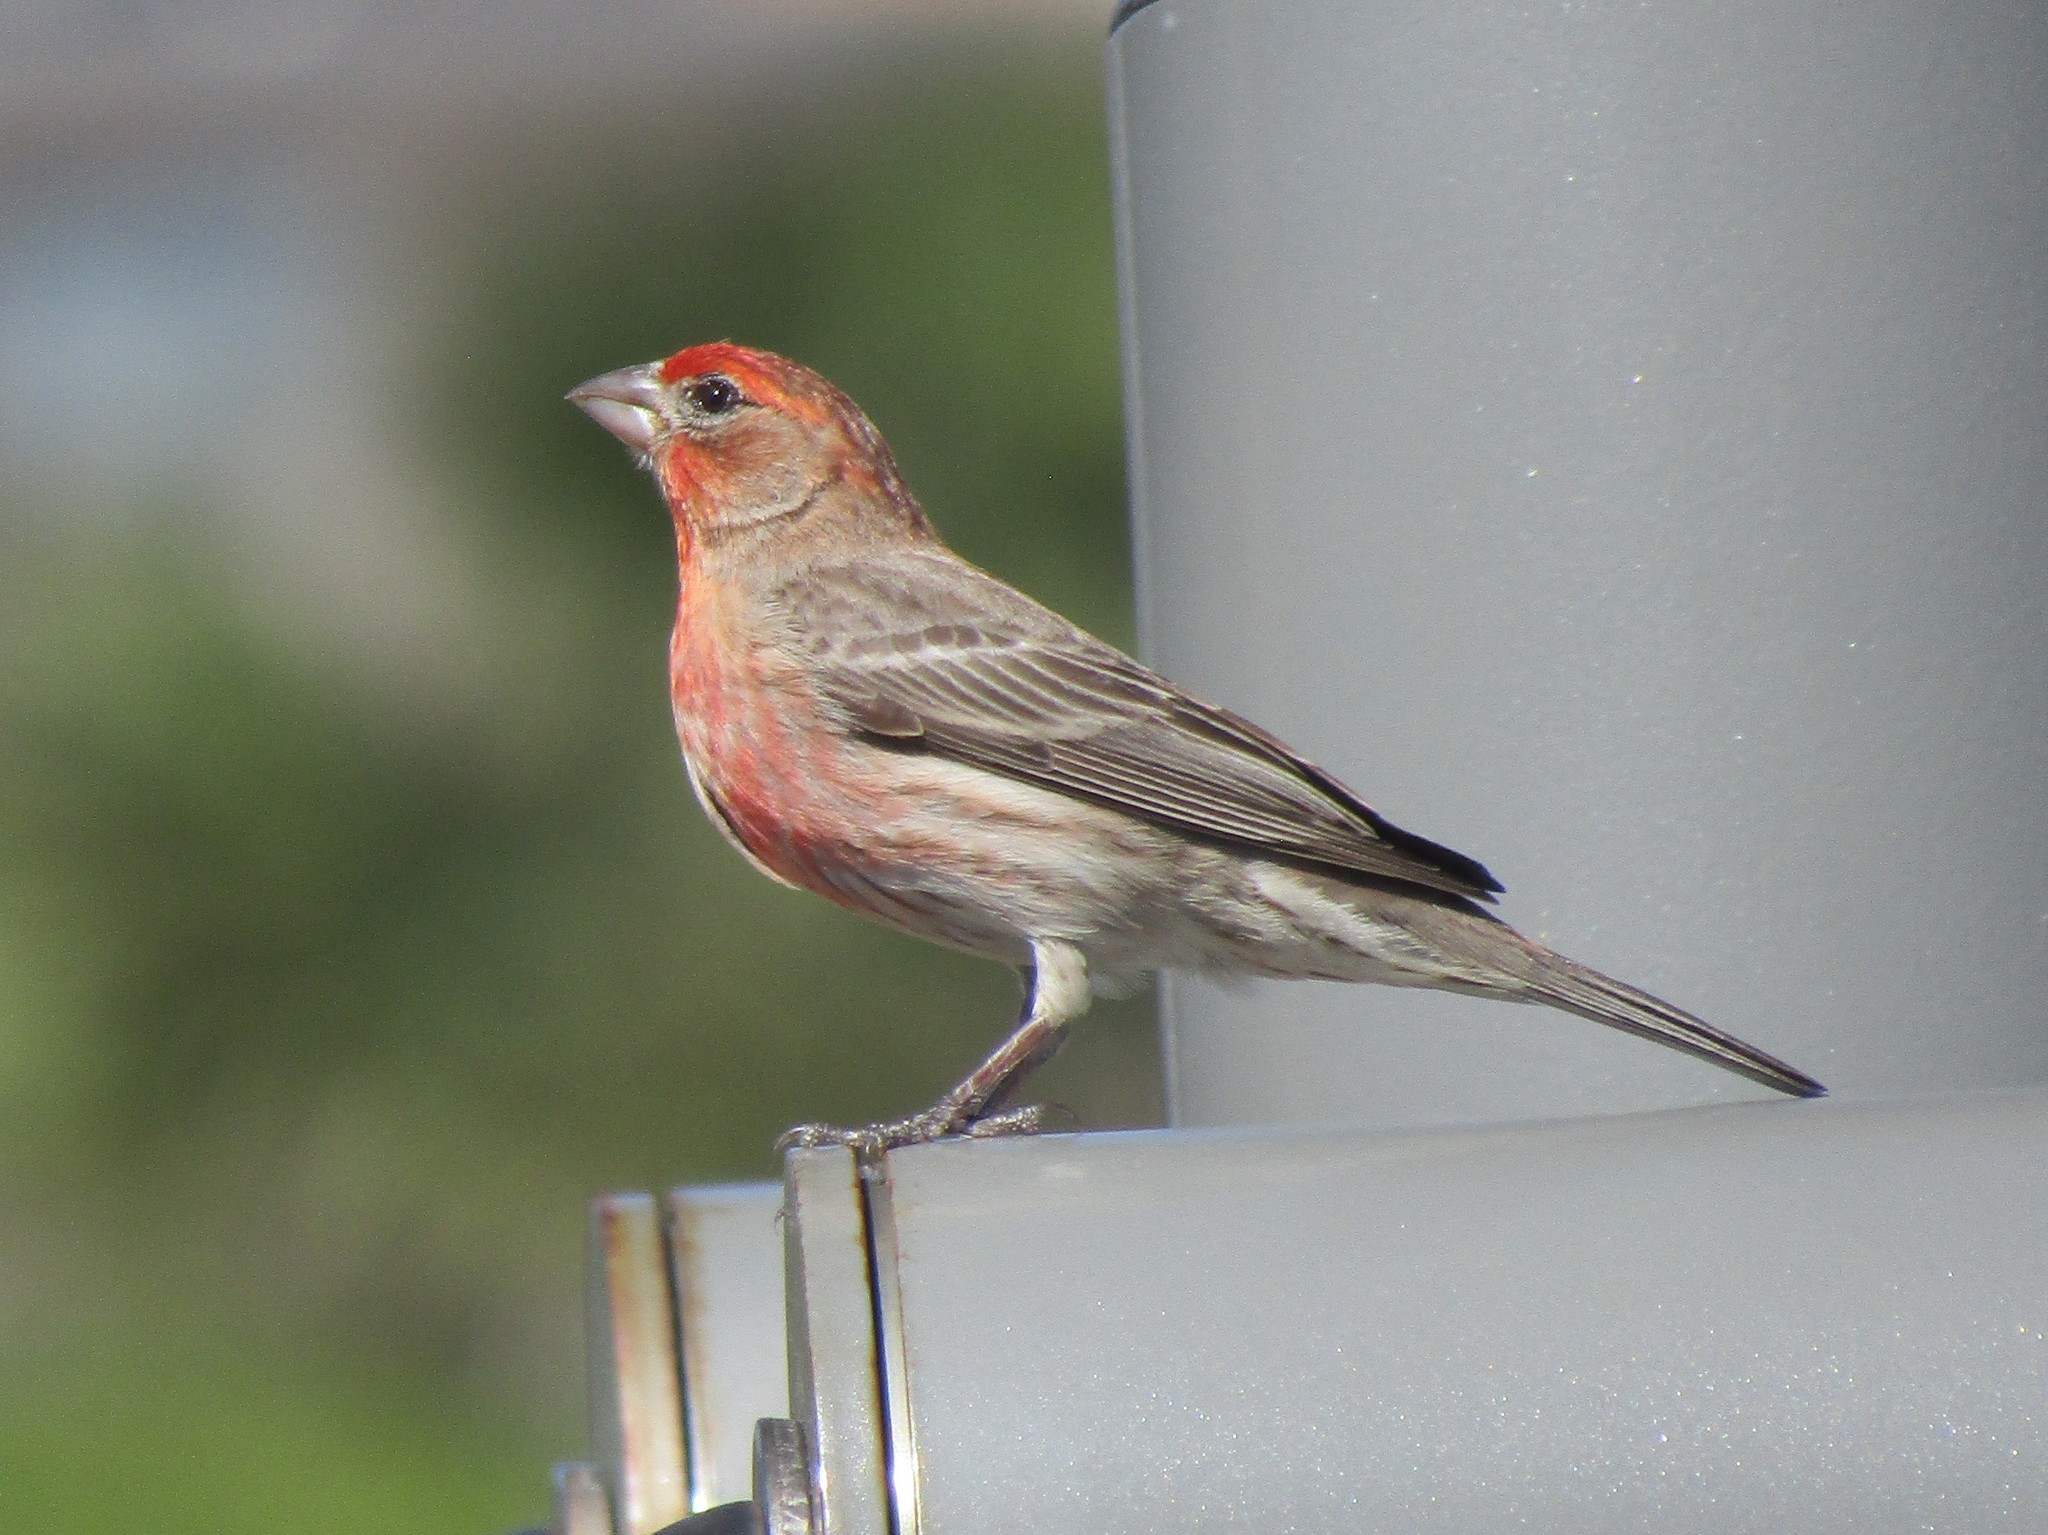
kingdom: Animalia
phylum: Chordata
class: Aves
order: Passeriformes
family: Fringillidae
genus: Haemorhous
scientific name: Haemorhous mexicanus
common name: House finch
